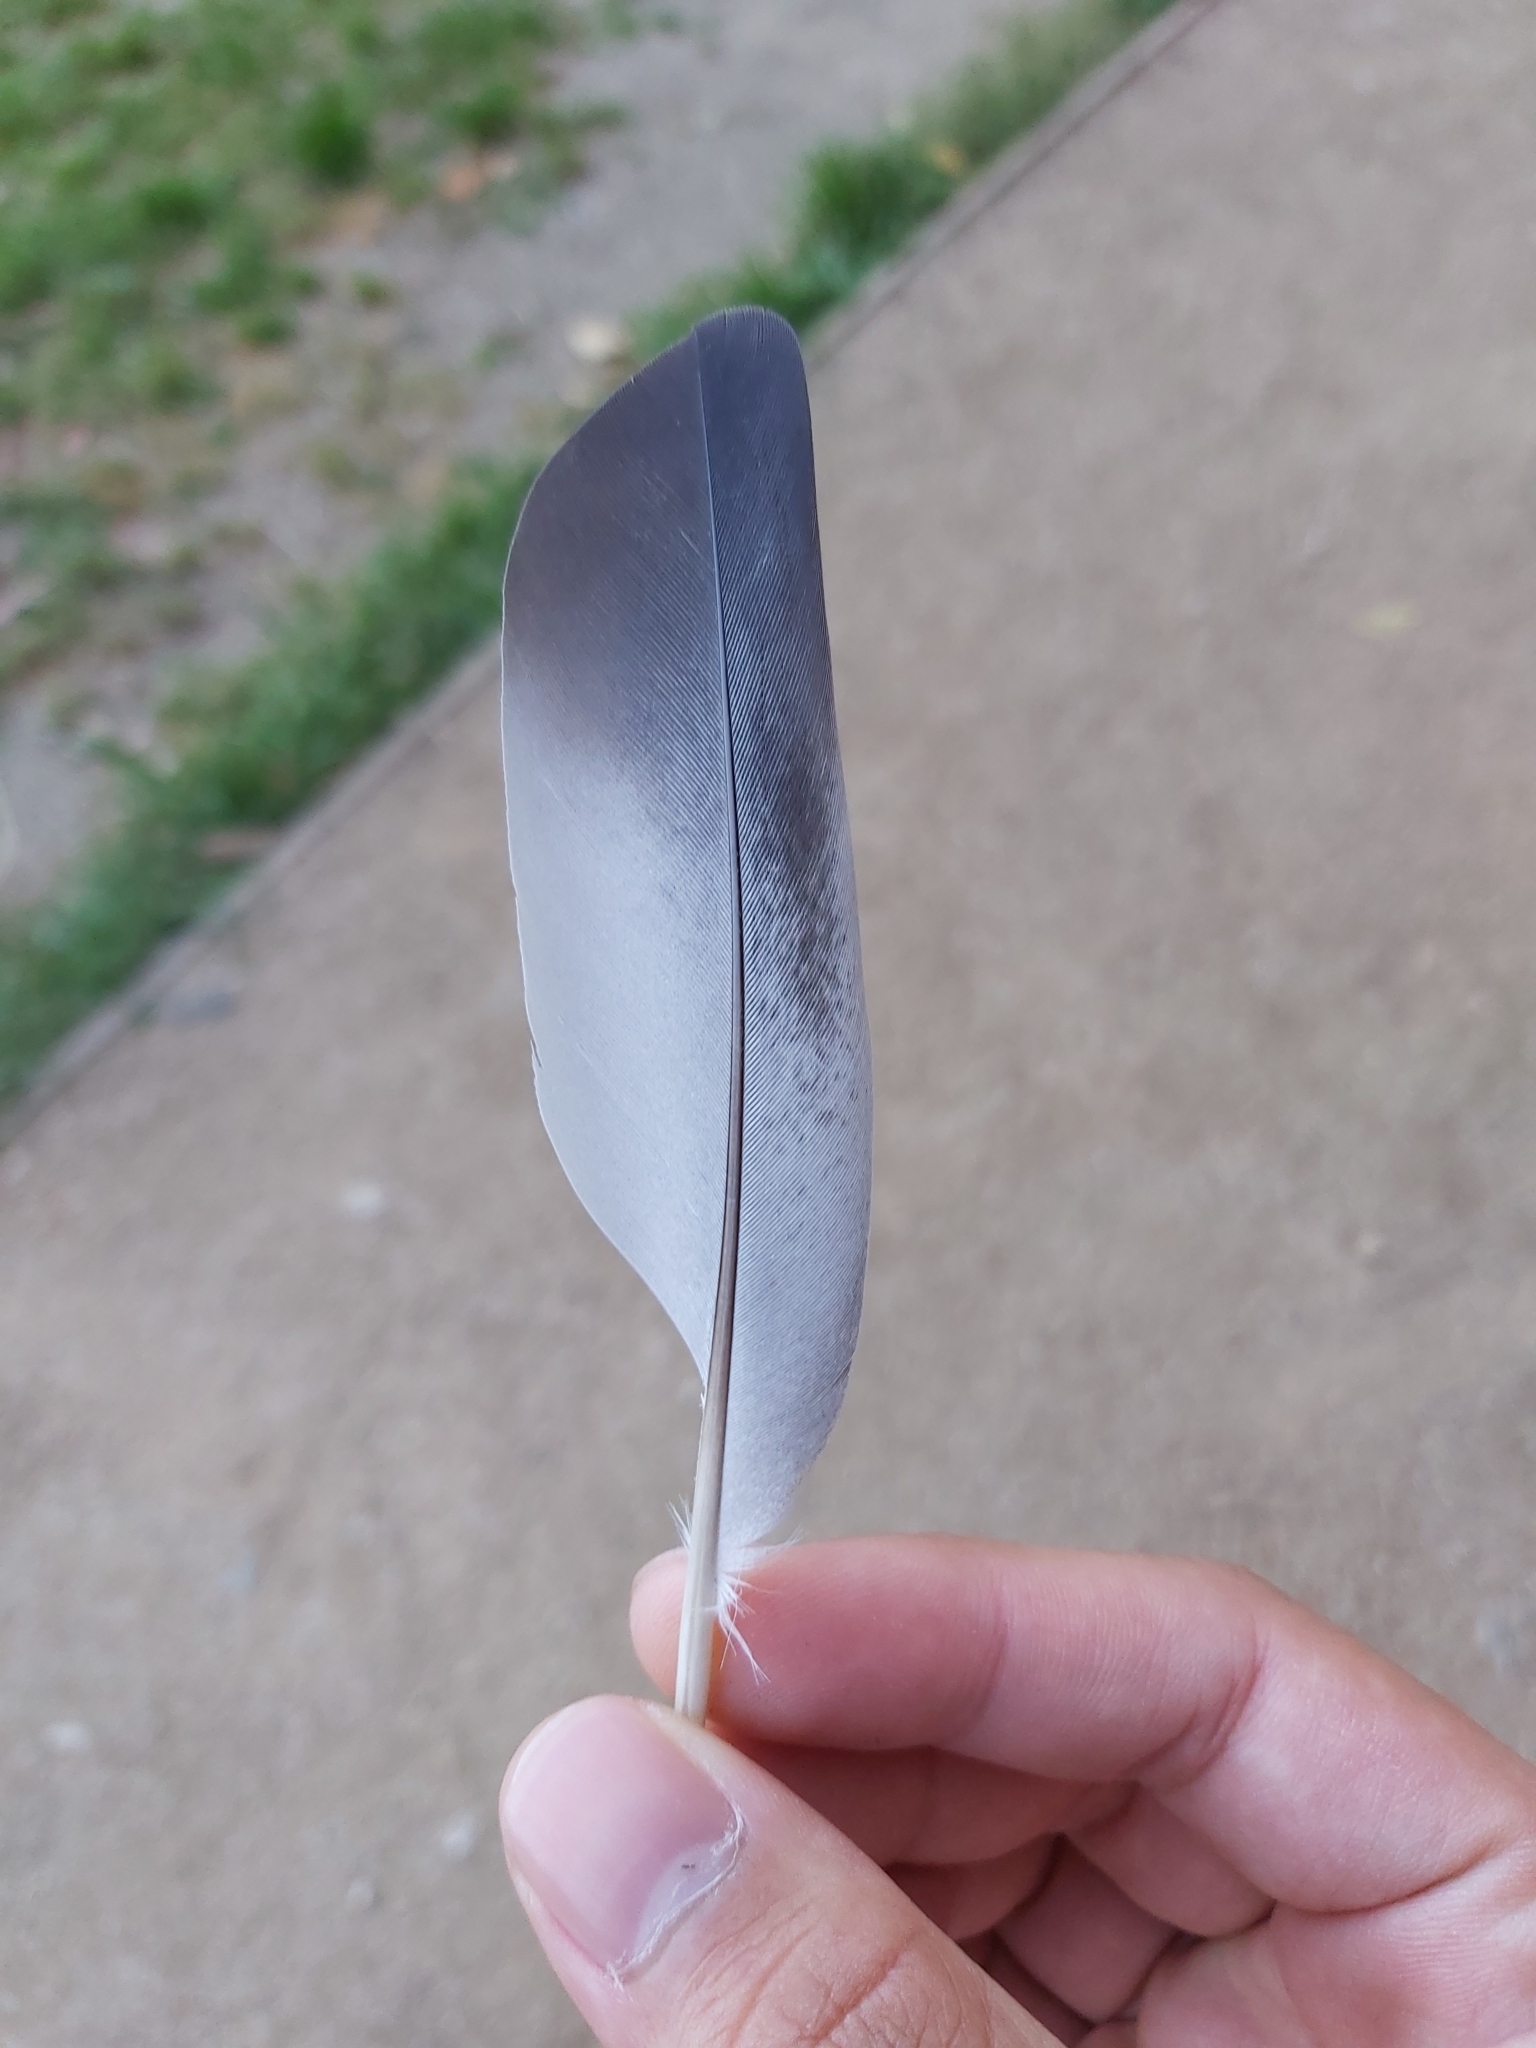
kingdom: Animalia
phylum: Chordata
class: Aves
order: Columbiformes
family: Columbidae
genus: Columba
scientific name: Columba livia
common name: Rock pigeon
